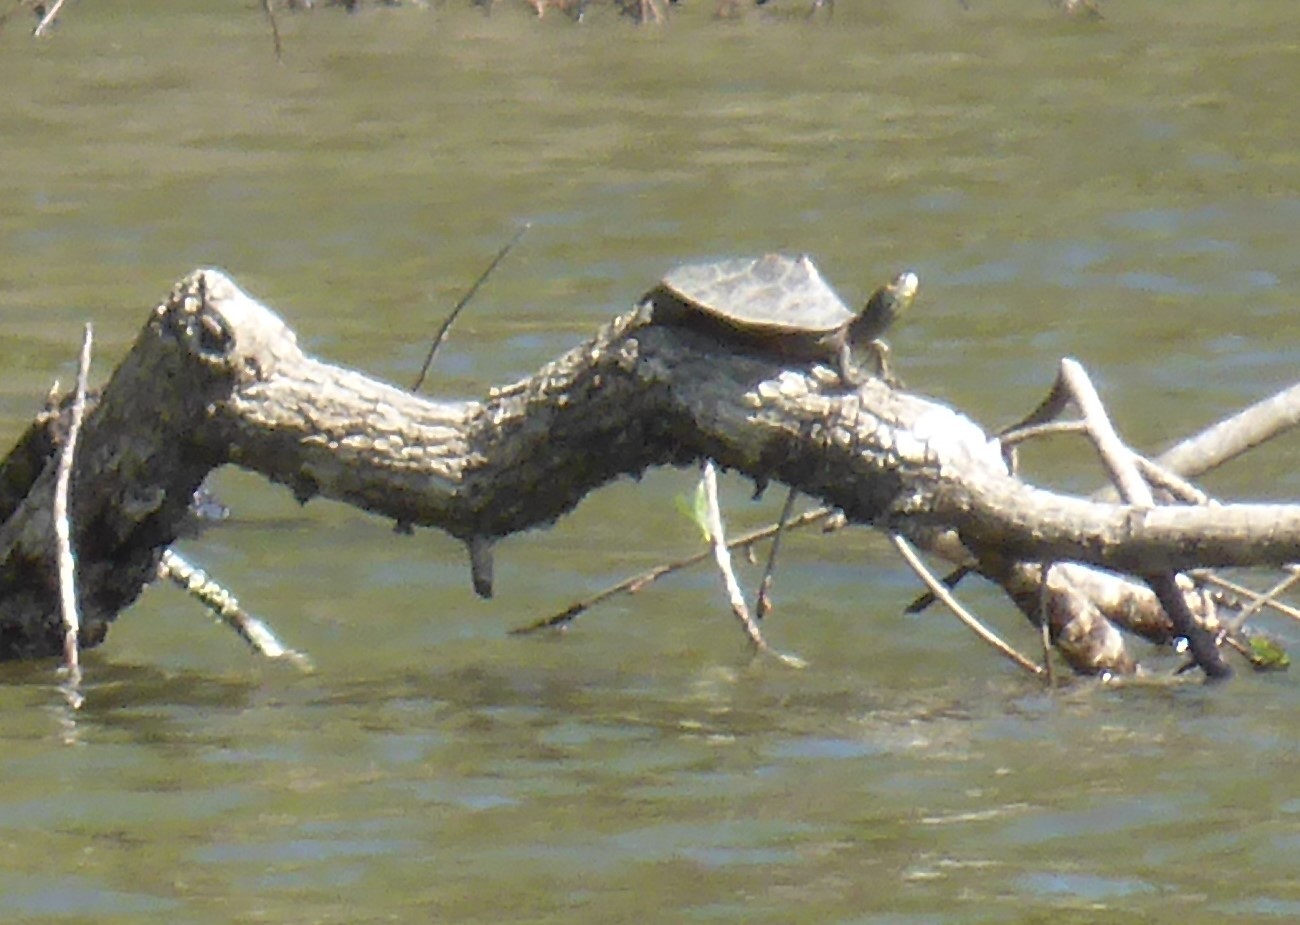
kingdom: Animalia
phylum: Chordata
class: Testudines
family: Emydidae
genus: Graptemys
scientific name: Graptemys barbouri
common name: Barbour's map turtle
